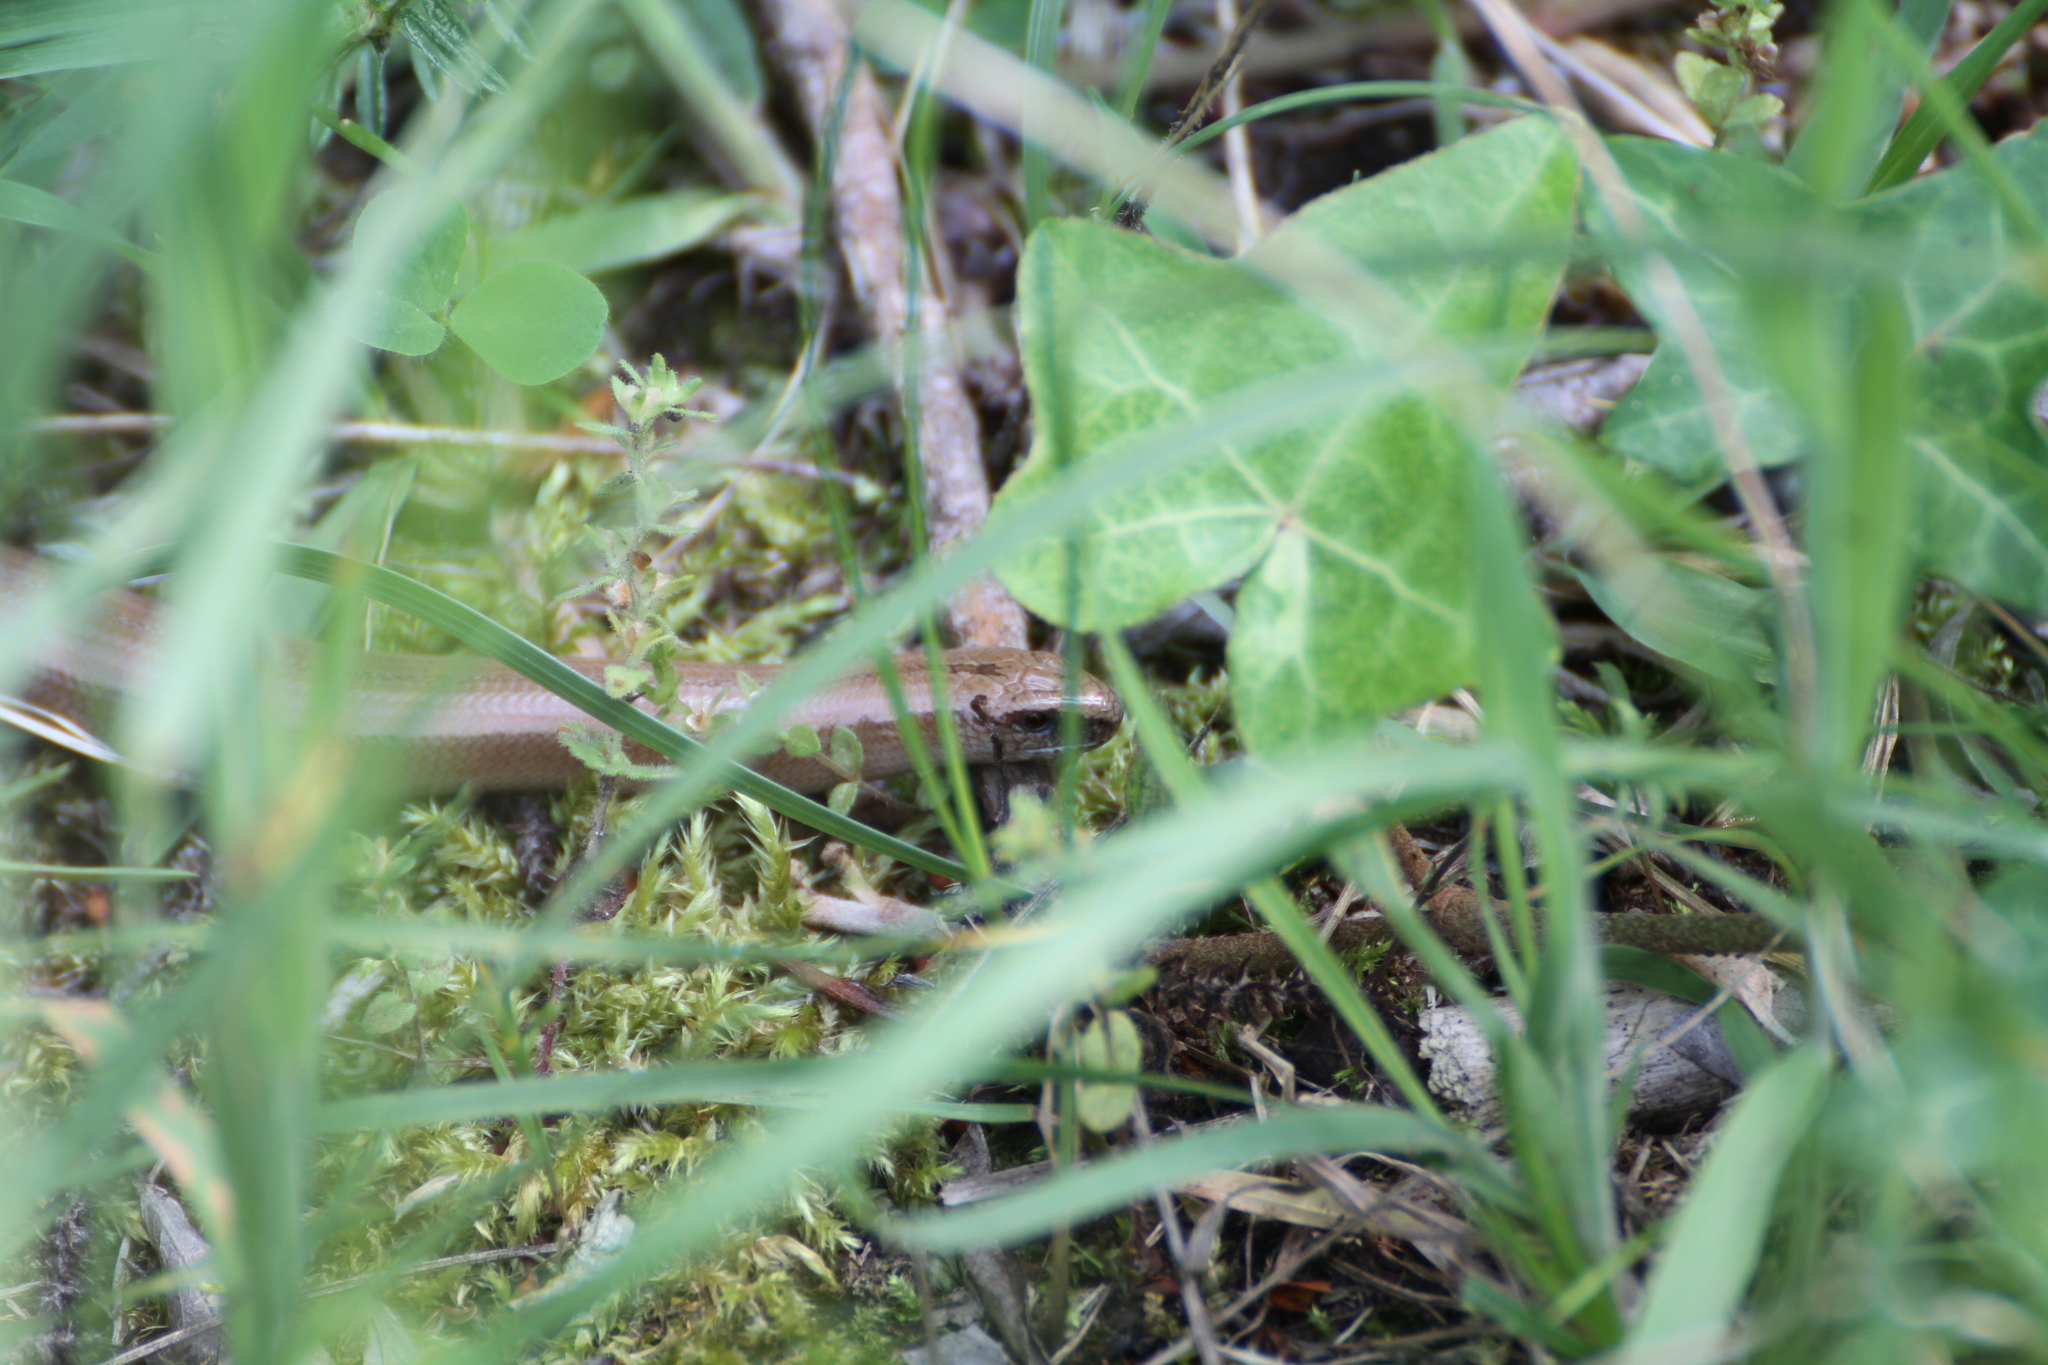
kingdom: Animalia
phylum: Chordata
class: Squamata
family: Anguidae
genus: Anguis
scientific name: Anguis fragilis
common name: Slow worm
